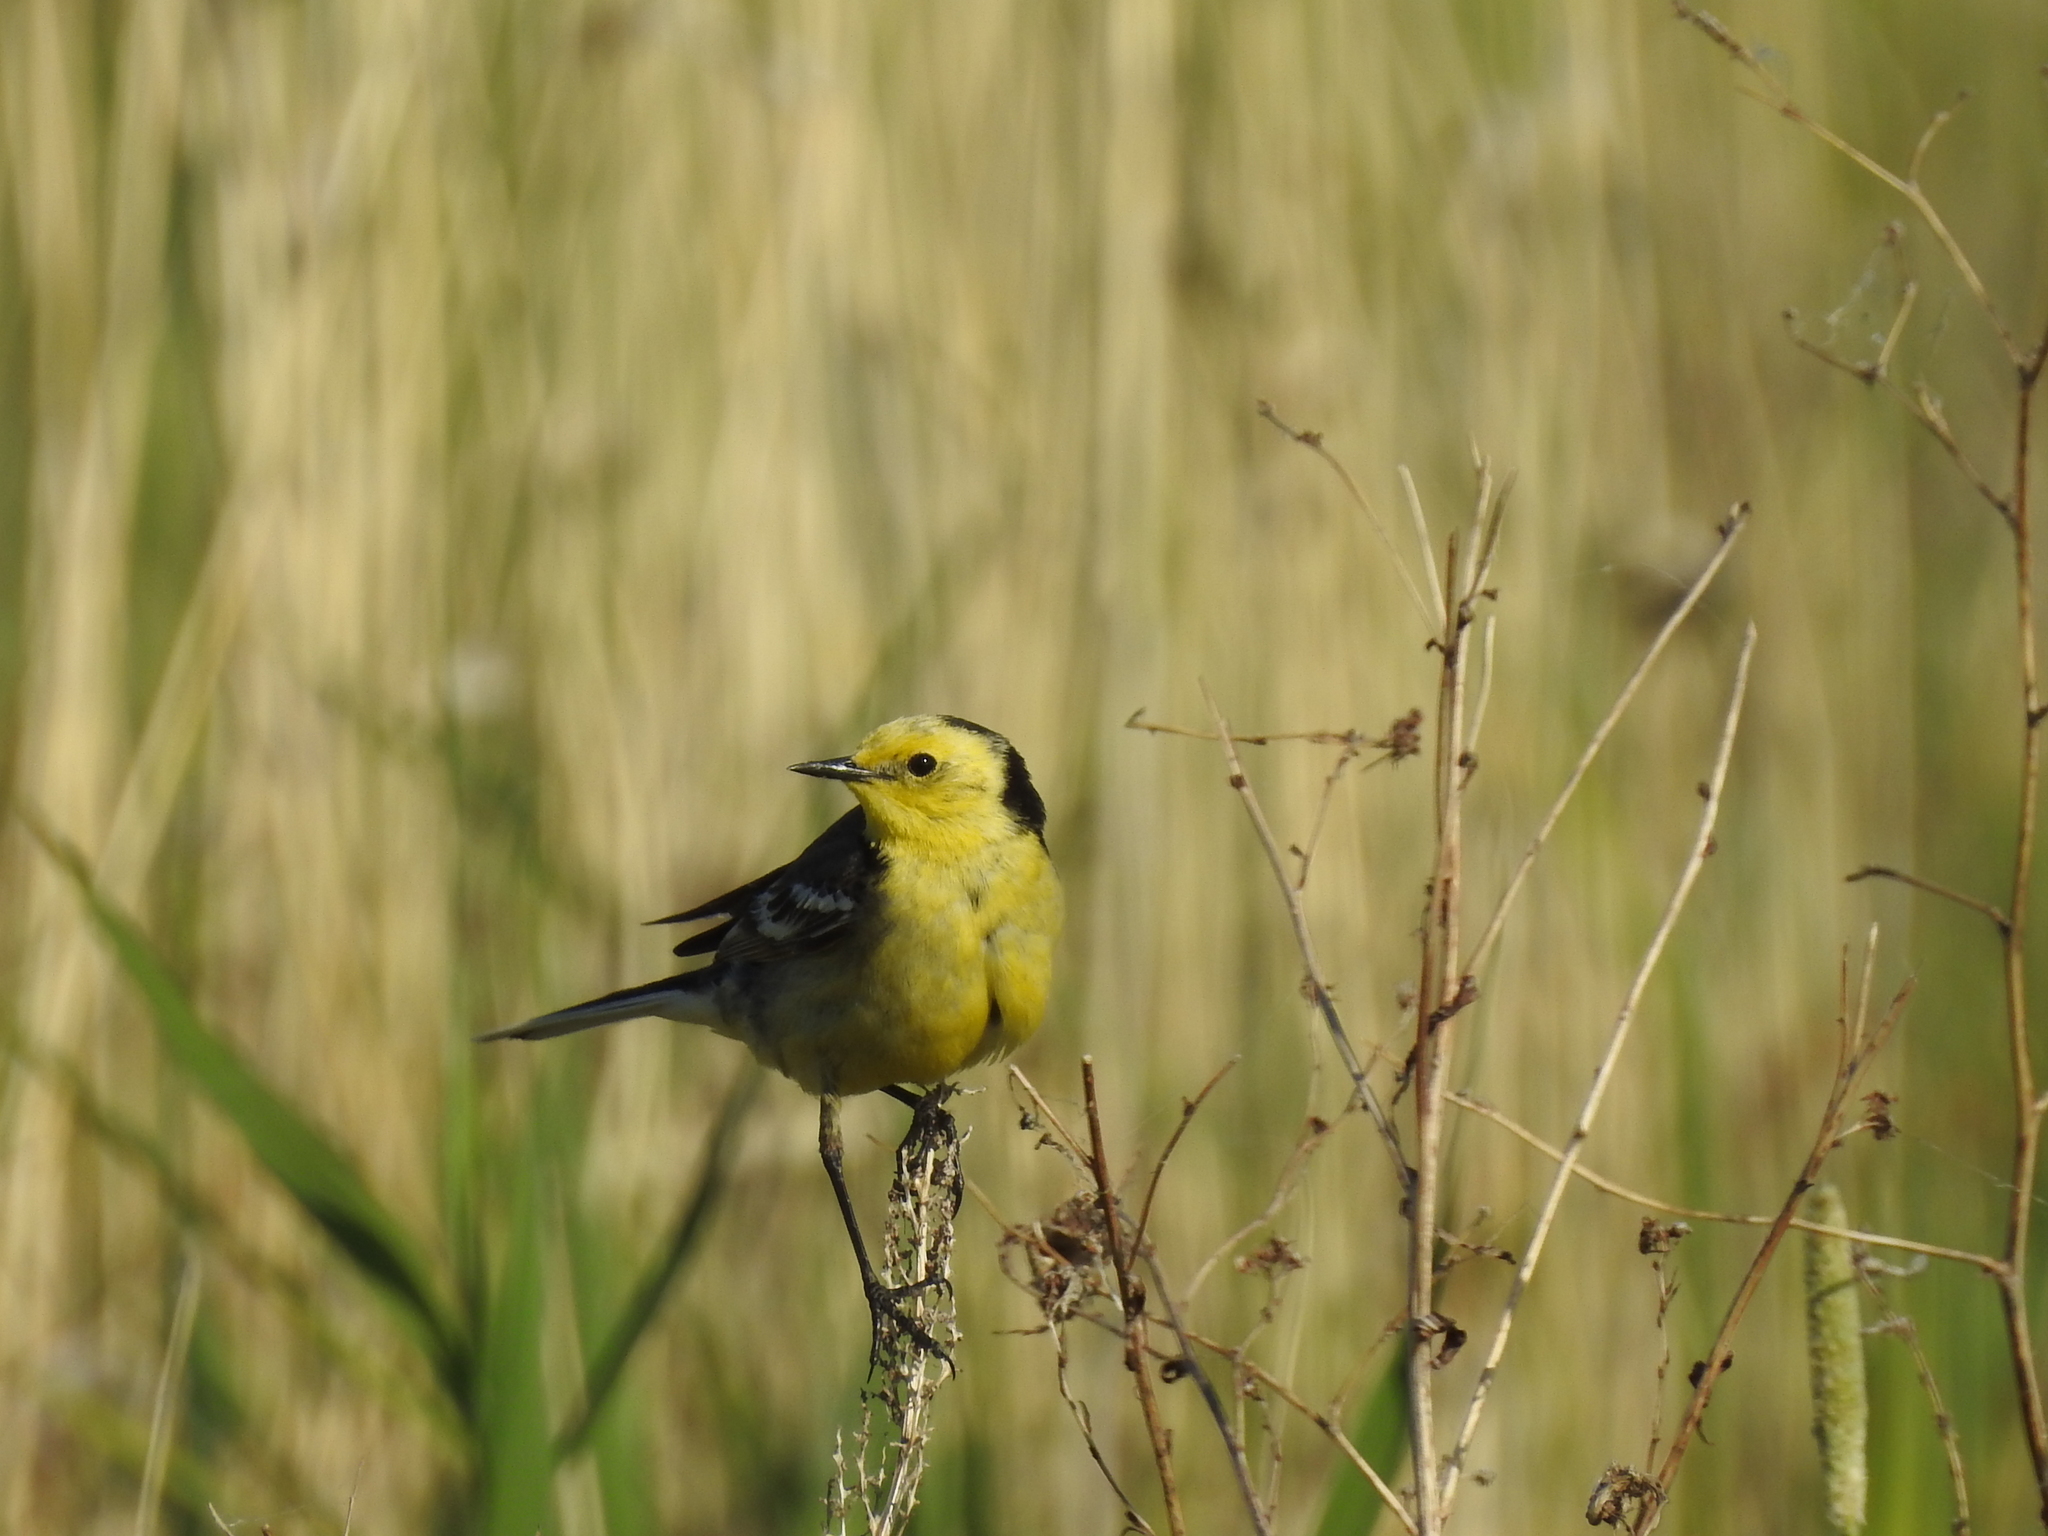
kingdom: Animalia
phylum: Chordata
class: Aves
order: Passeriformes
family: Motacillidae
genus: Motacilla
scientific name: Motacilla citreola
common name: Citrine wagtail
